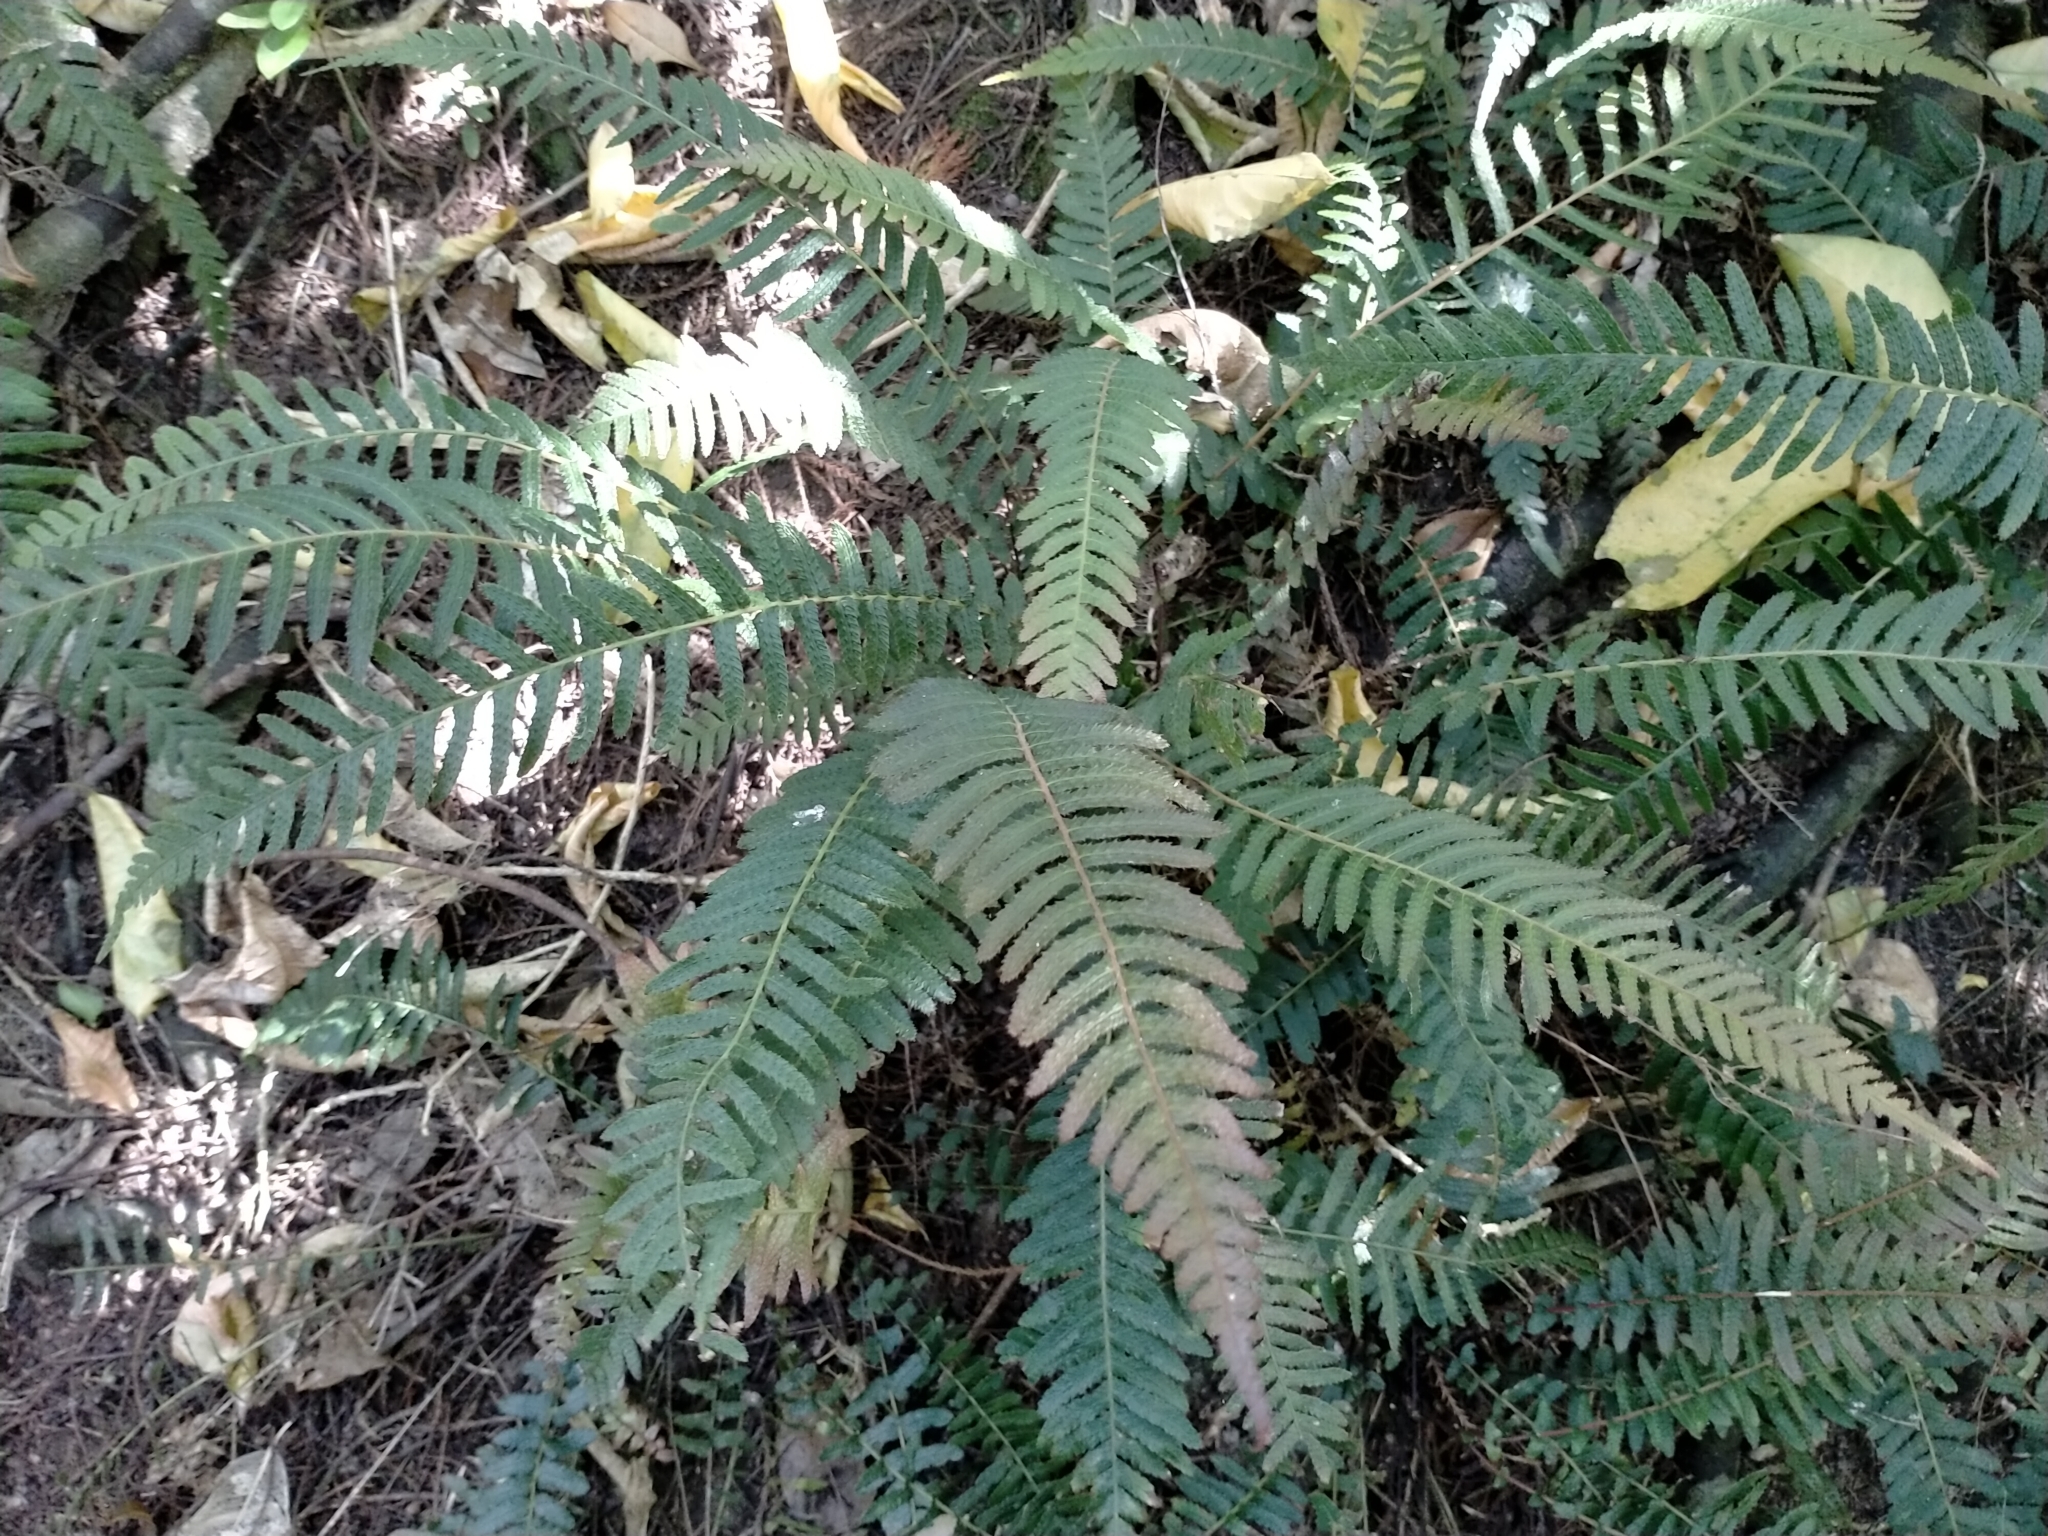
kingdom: Plantae
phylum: Tracheophyta
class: Polypodiopsida
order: Polypodiales
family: Blechnaceae
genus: Doodia
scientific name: Doodia australis
